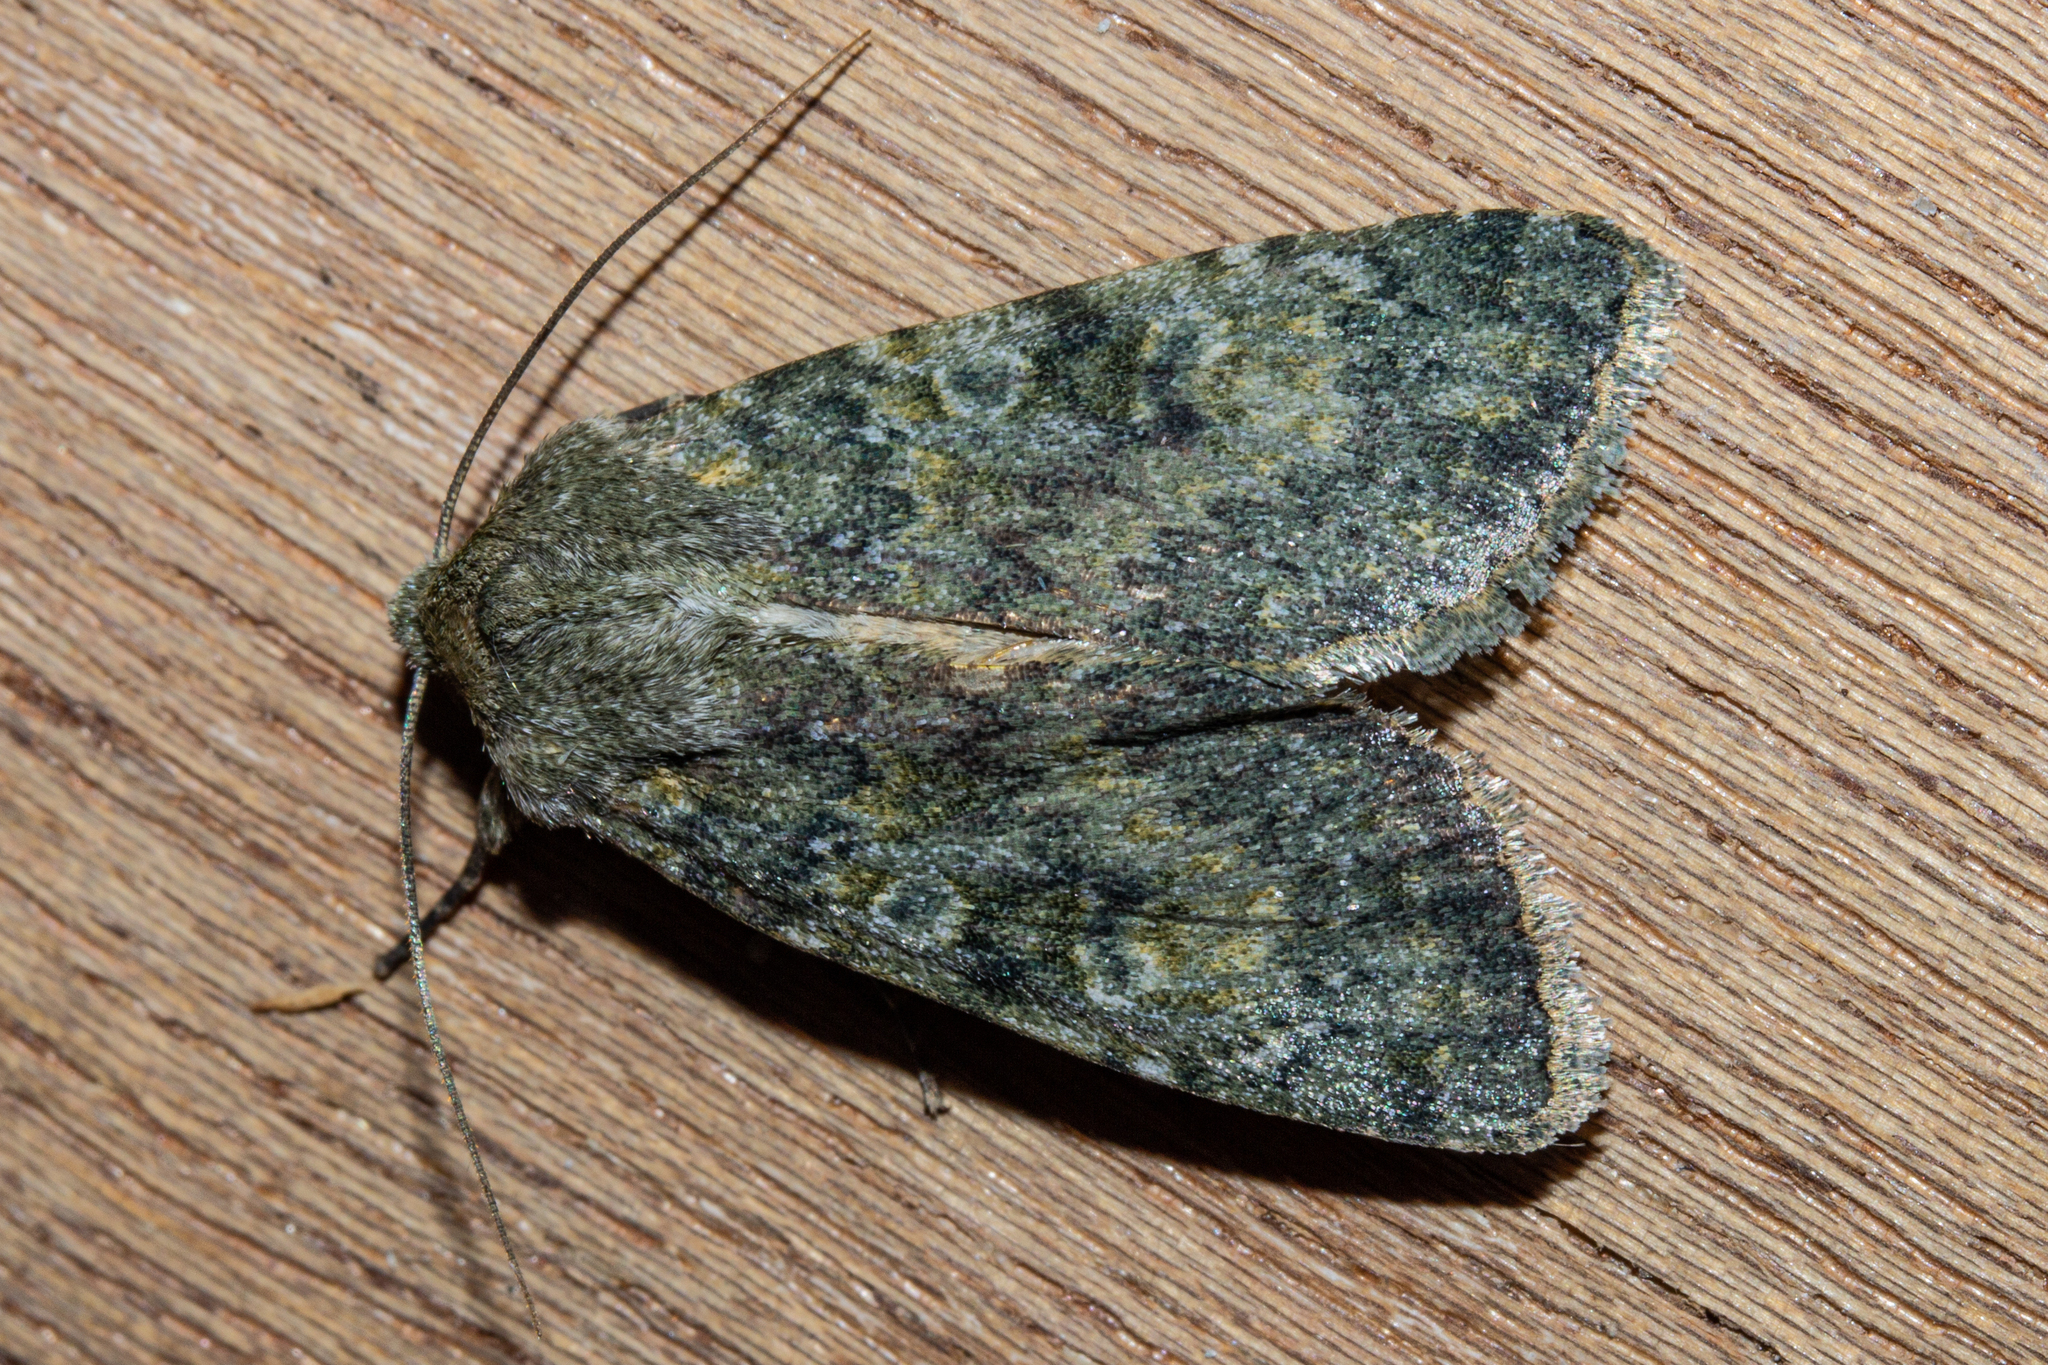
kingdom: Animalia
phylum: Arthropoda
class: Insecta
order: Lepidoptera
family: Noctuidae
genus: Ichneutica
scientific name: Ichneutica cuneata
